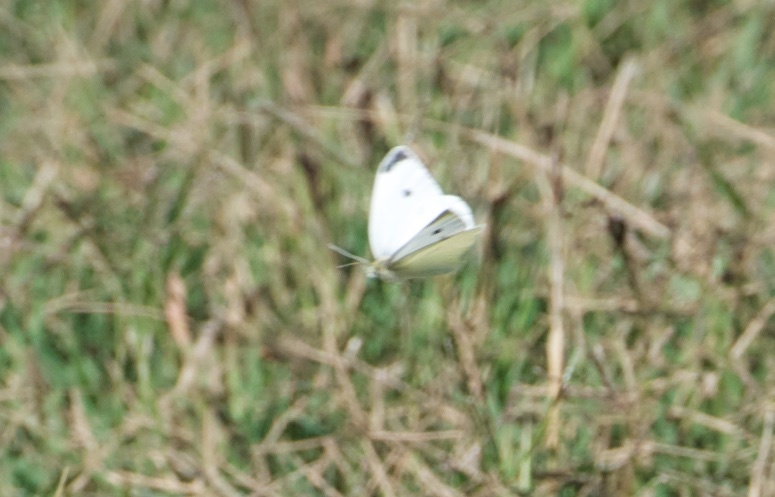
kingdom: Animalia
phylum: Arthropoda
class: Insecta
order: Lepidoptera
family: Pieridae
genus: Pieris
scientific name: Pieris rapae
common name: Small white
